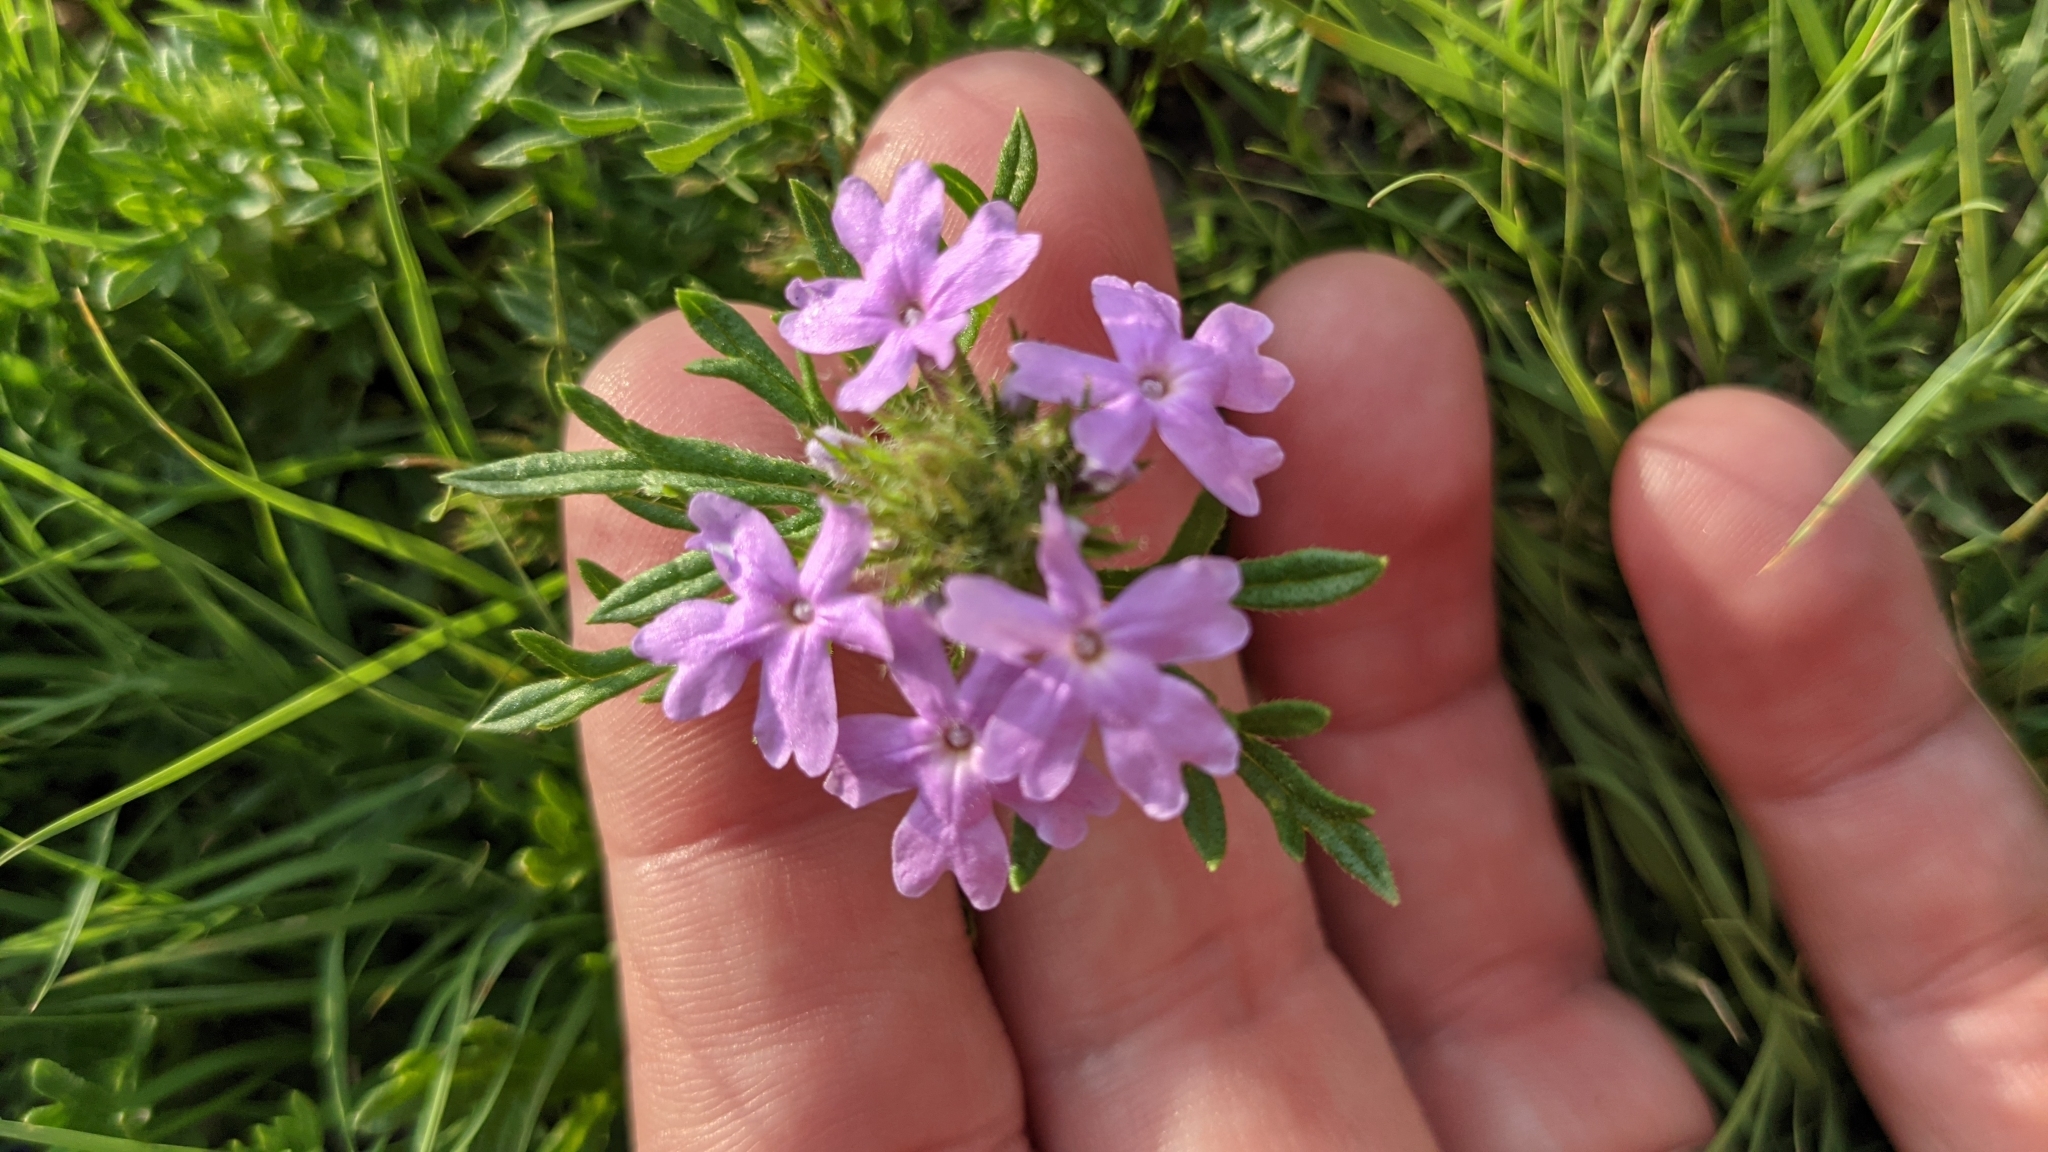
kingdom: Plantae
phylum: Tracheophyta
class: Magnoliopsida
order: Lamiales
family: Verbenaceae
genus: Verbena
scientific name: Verbena bipinnatifida
